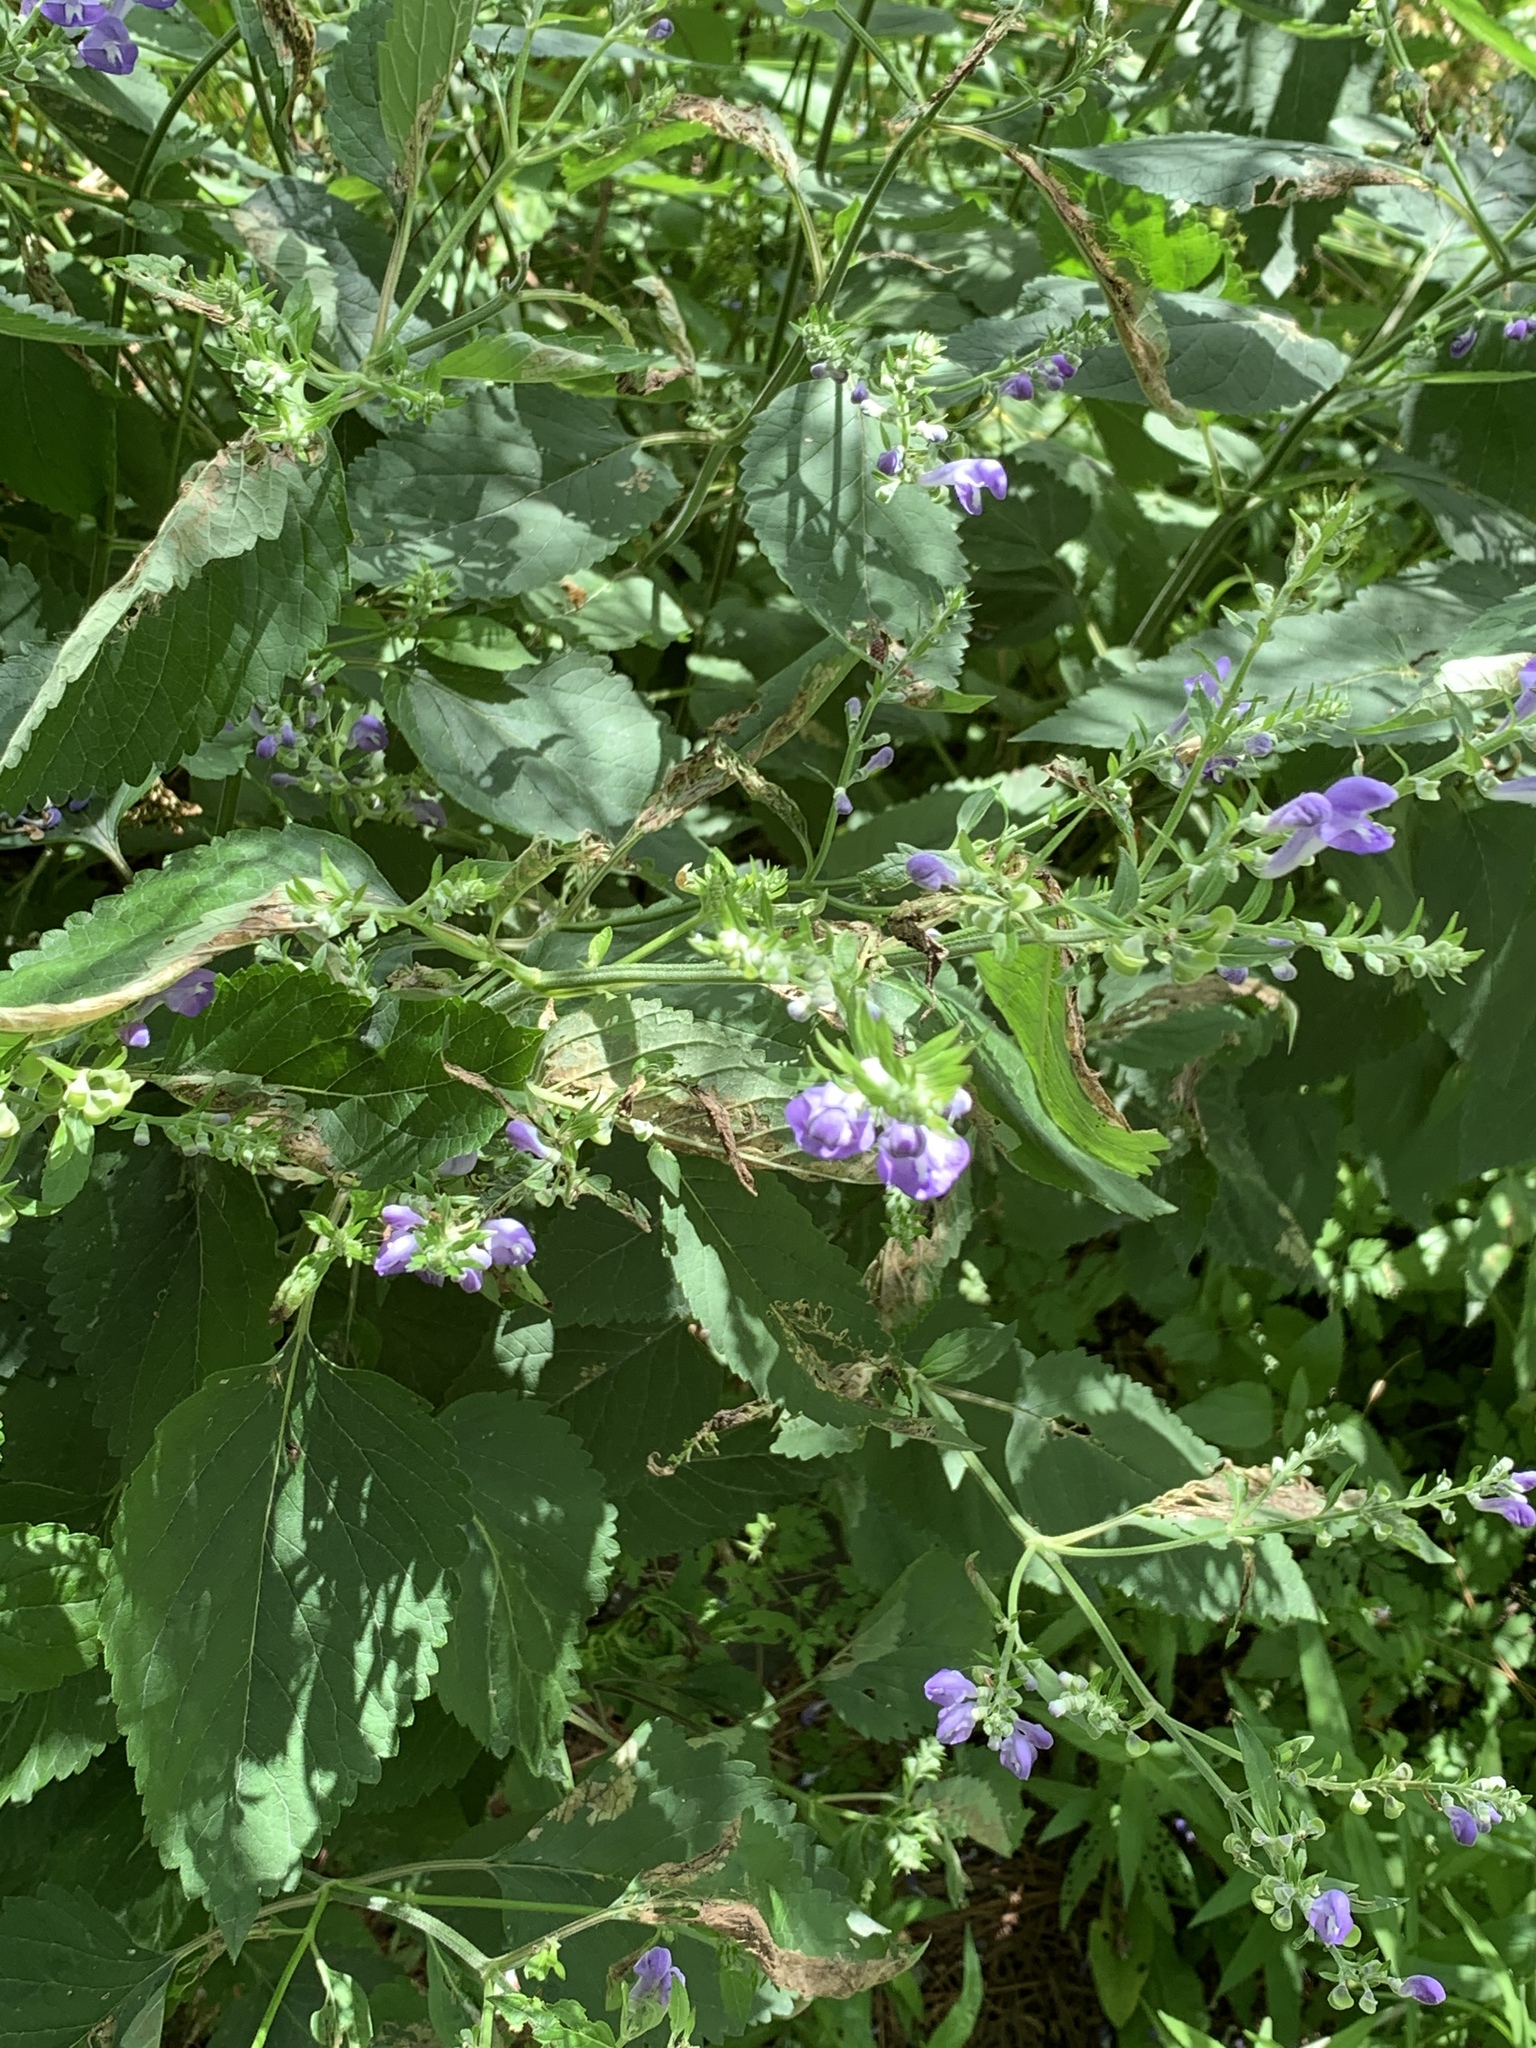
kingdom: Plantae
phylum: Tracheophyta
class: Magnoliopsida
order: Lamiales
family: Lamiaceae
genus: Scutellaria
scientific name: Scutellaria incana
